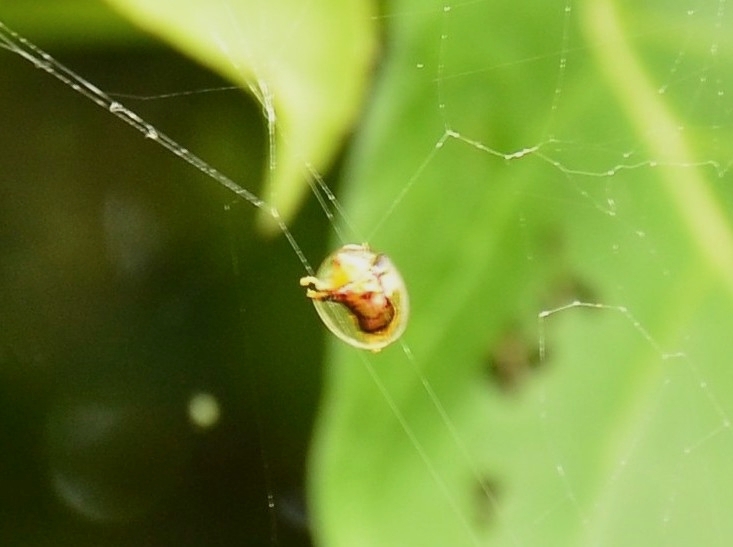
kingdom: Animalia
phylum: Arthropoda
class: Insecta
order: Coleoptera
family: Chrysomelidae
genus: Aspidimorpha
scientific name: Aspidimorpha furcata
